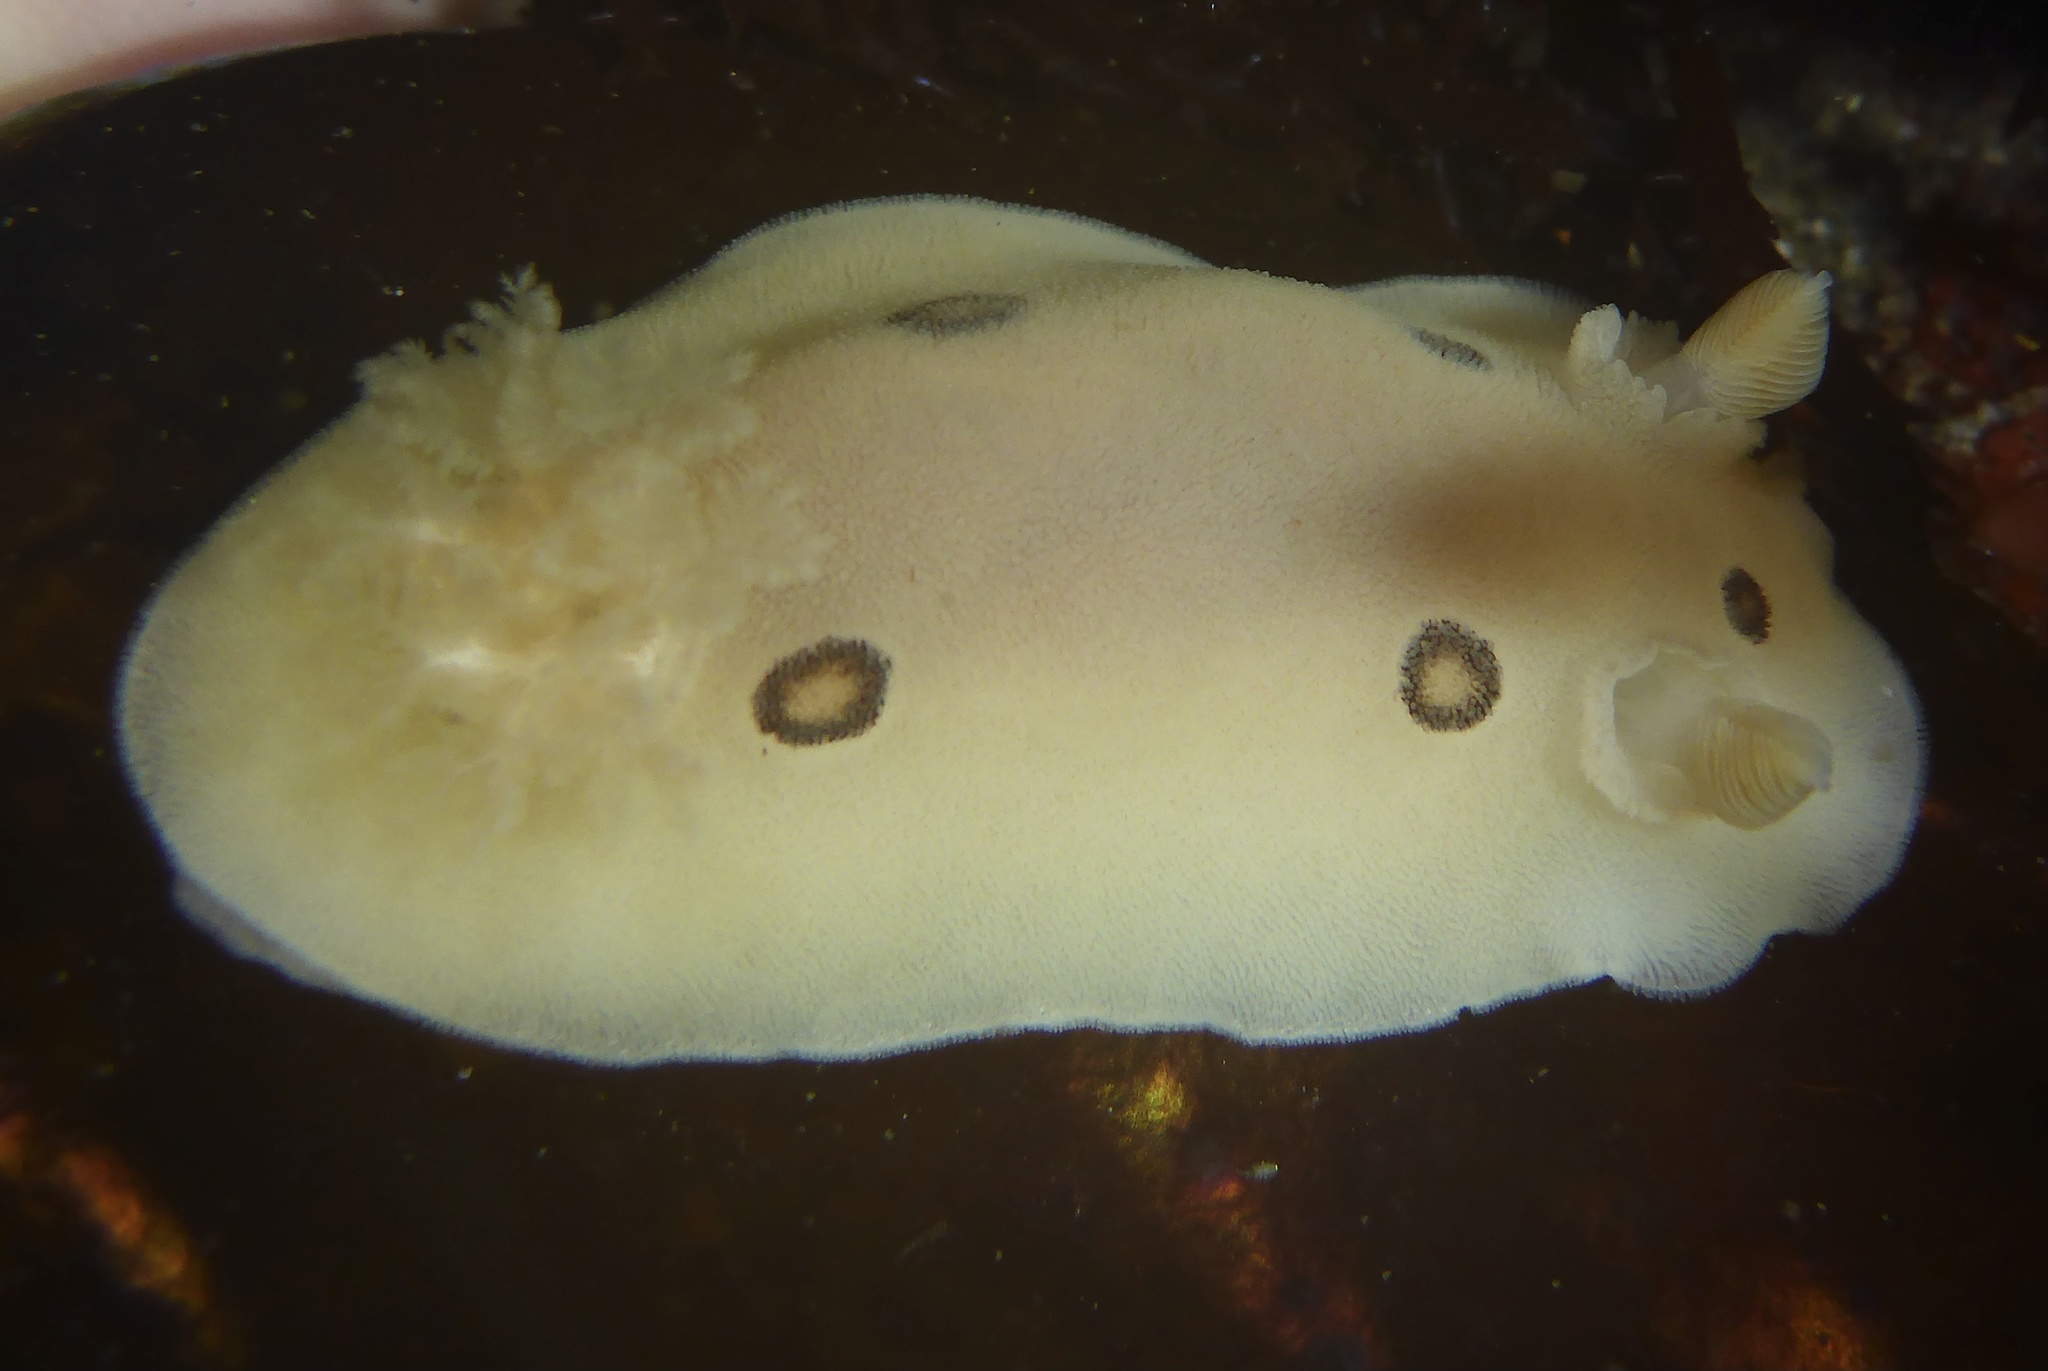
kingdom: Animalia
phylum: Mollusca
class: Gastropoda
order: Nudibranchia
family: Discodorididae
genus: Diaulula
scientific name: Diaulula sandiegensis
